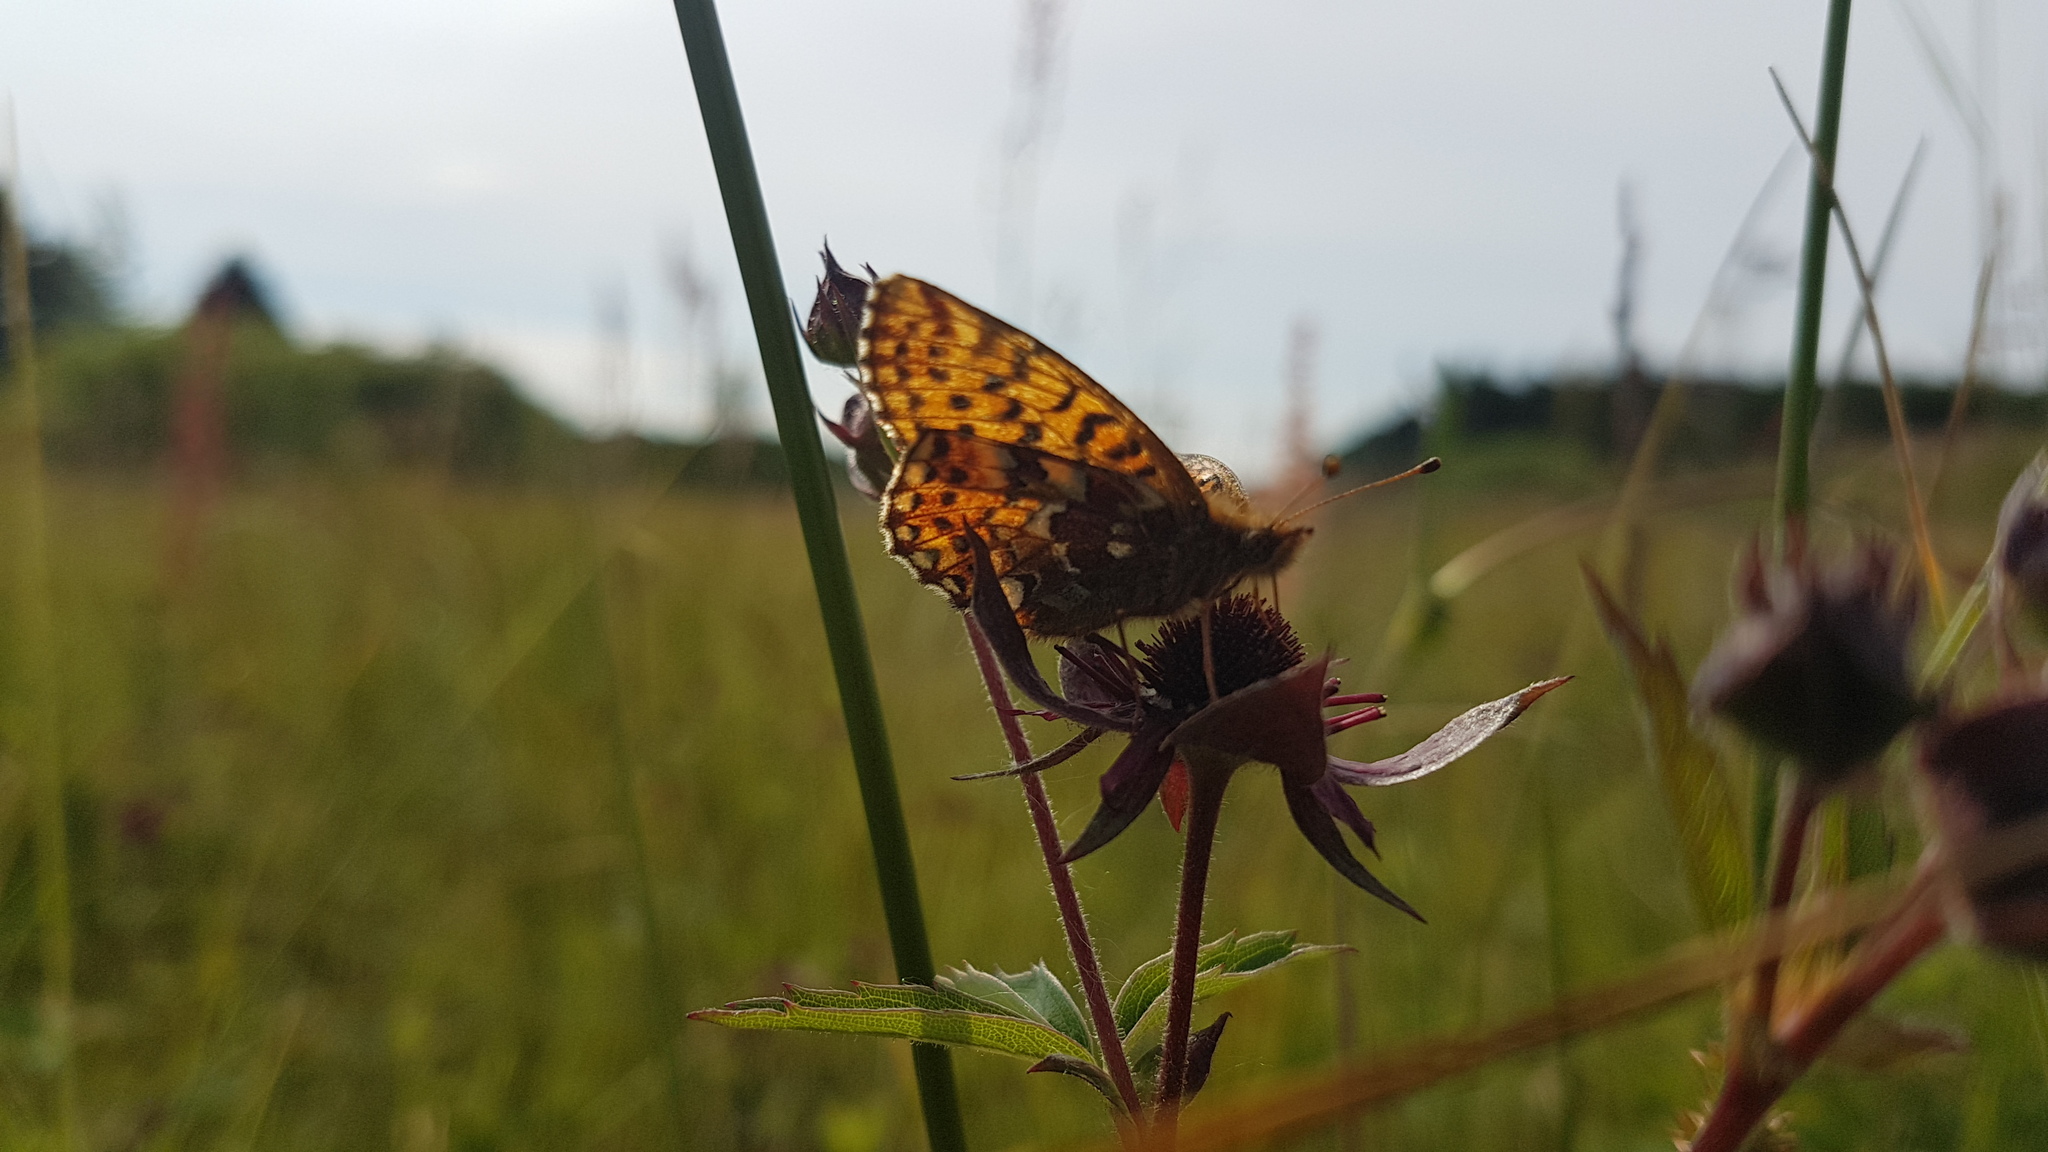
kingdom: Animalia
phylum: Arthropoda
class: Insecta
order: Lepidoptera
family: Nymphalidae
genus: Boloria
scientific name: Boloria aquilonaris
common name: Cranberry fritillary
